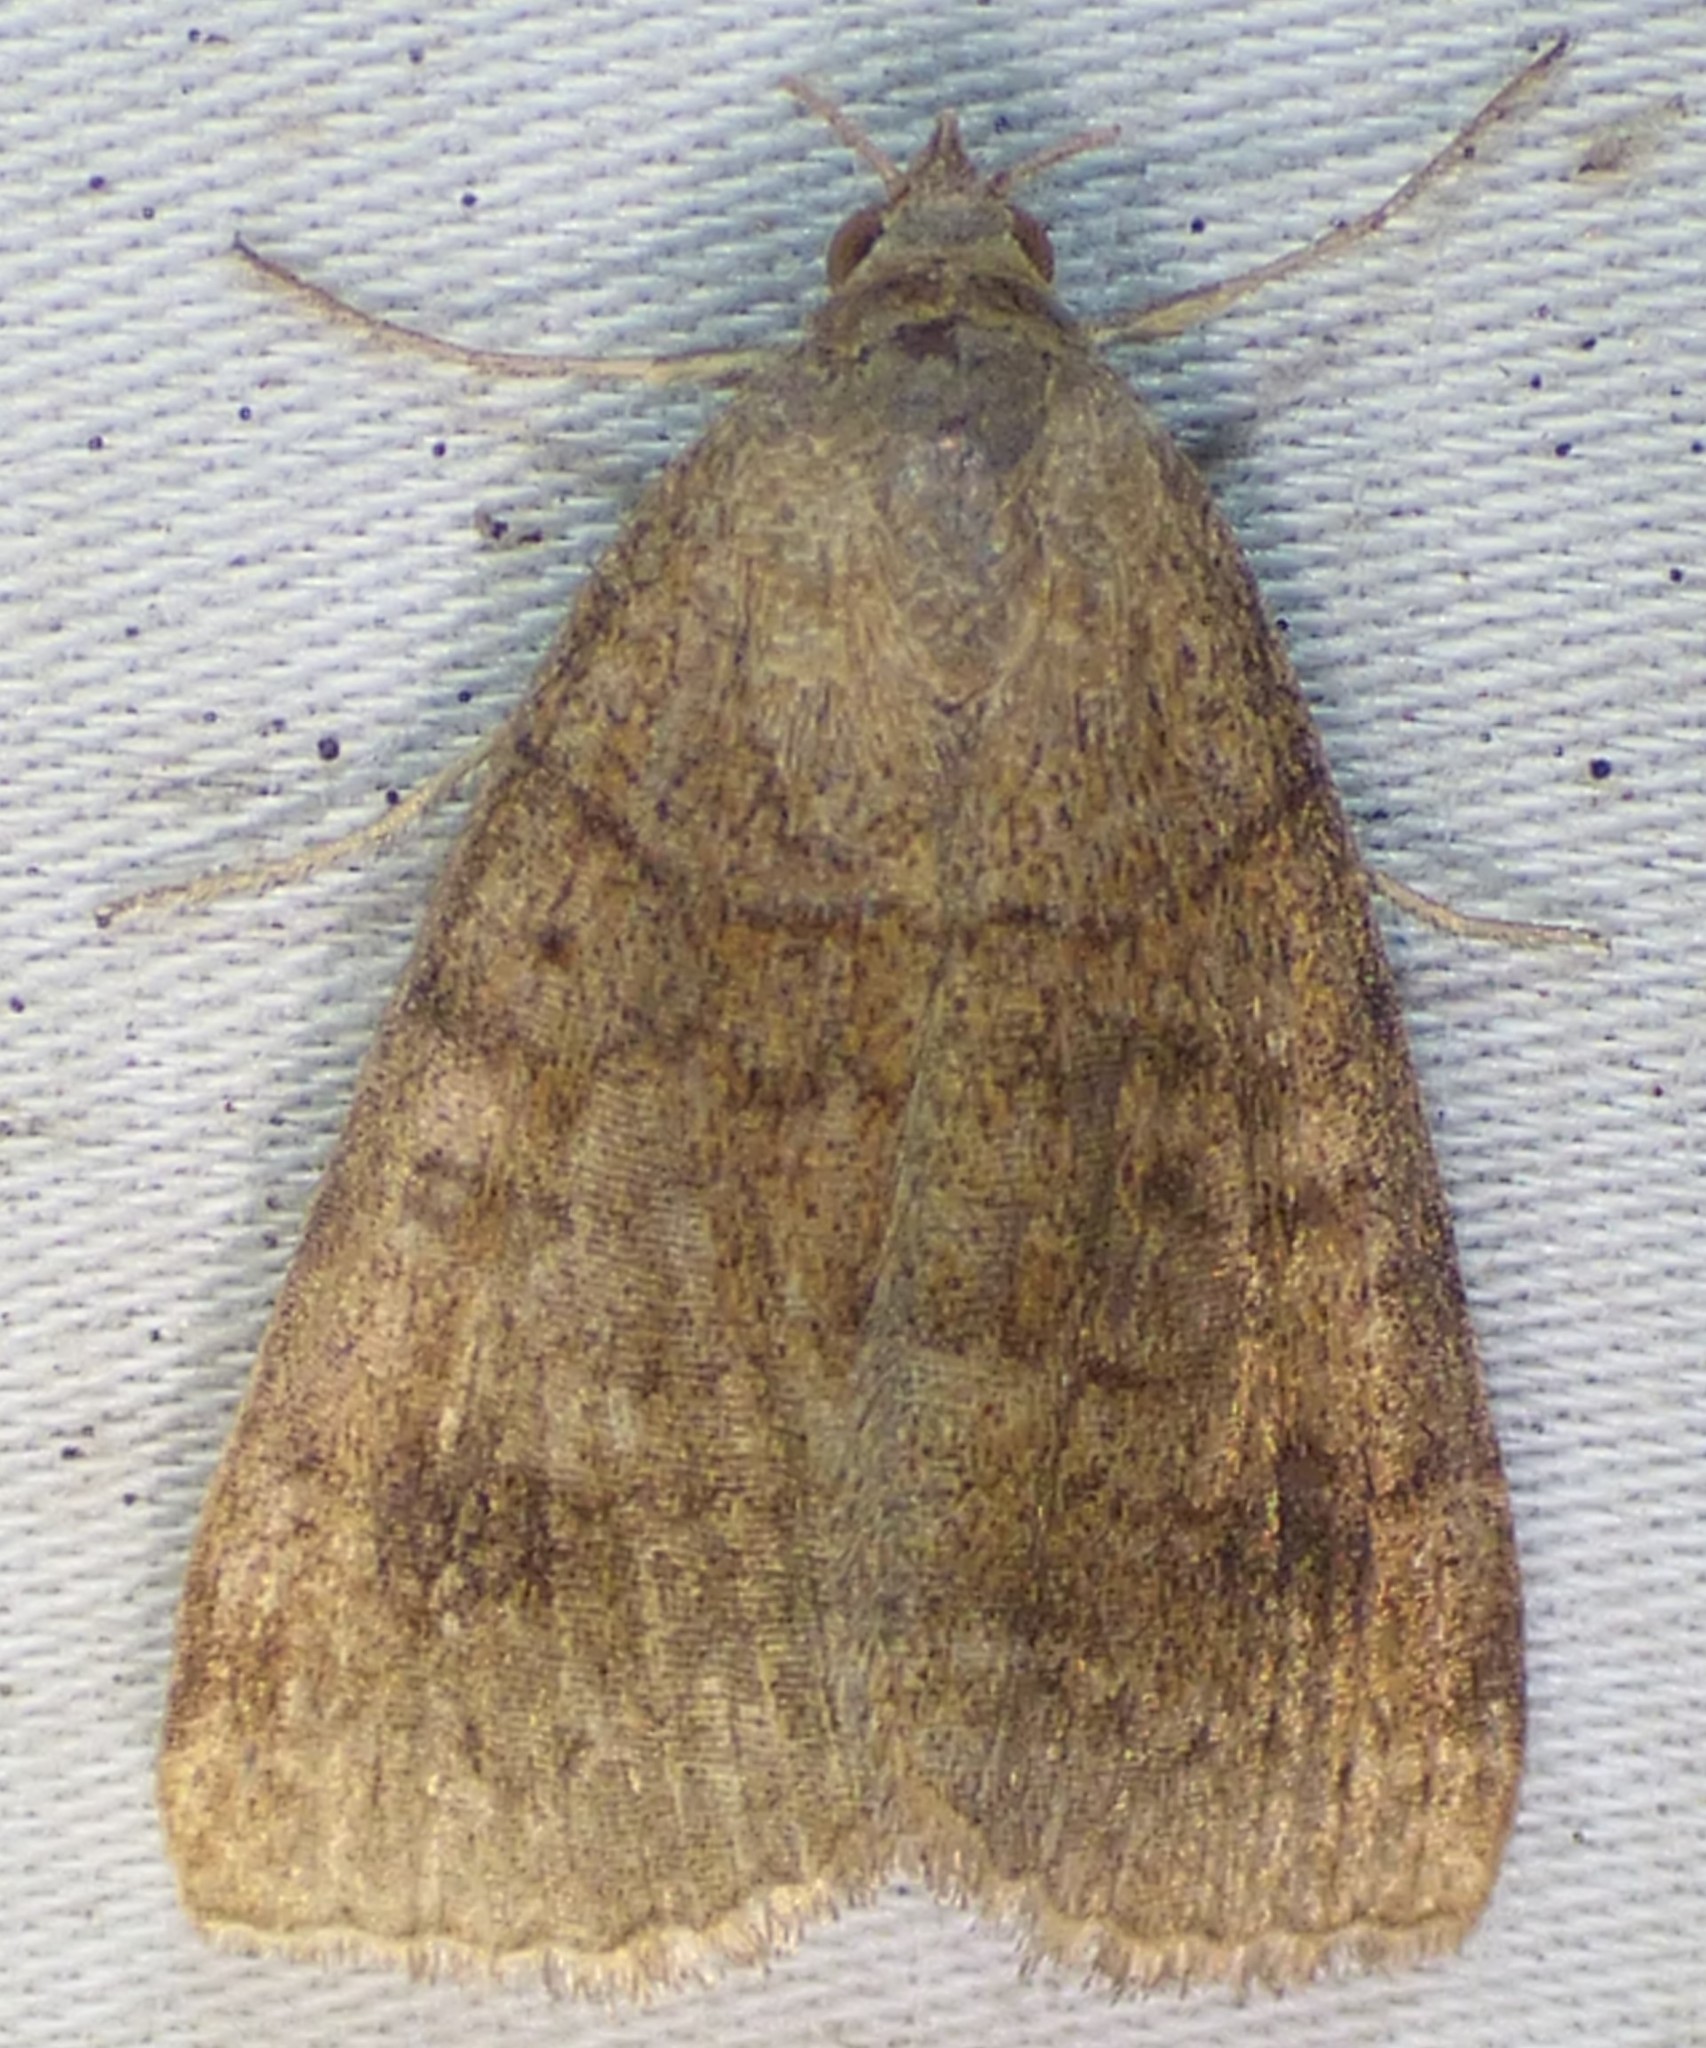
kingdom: Animalia
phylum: Arthropoda
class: Insecta
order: Lepidoptera
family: Erebidae
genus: Caenurgia
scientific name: Caenurgia chloropha
